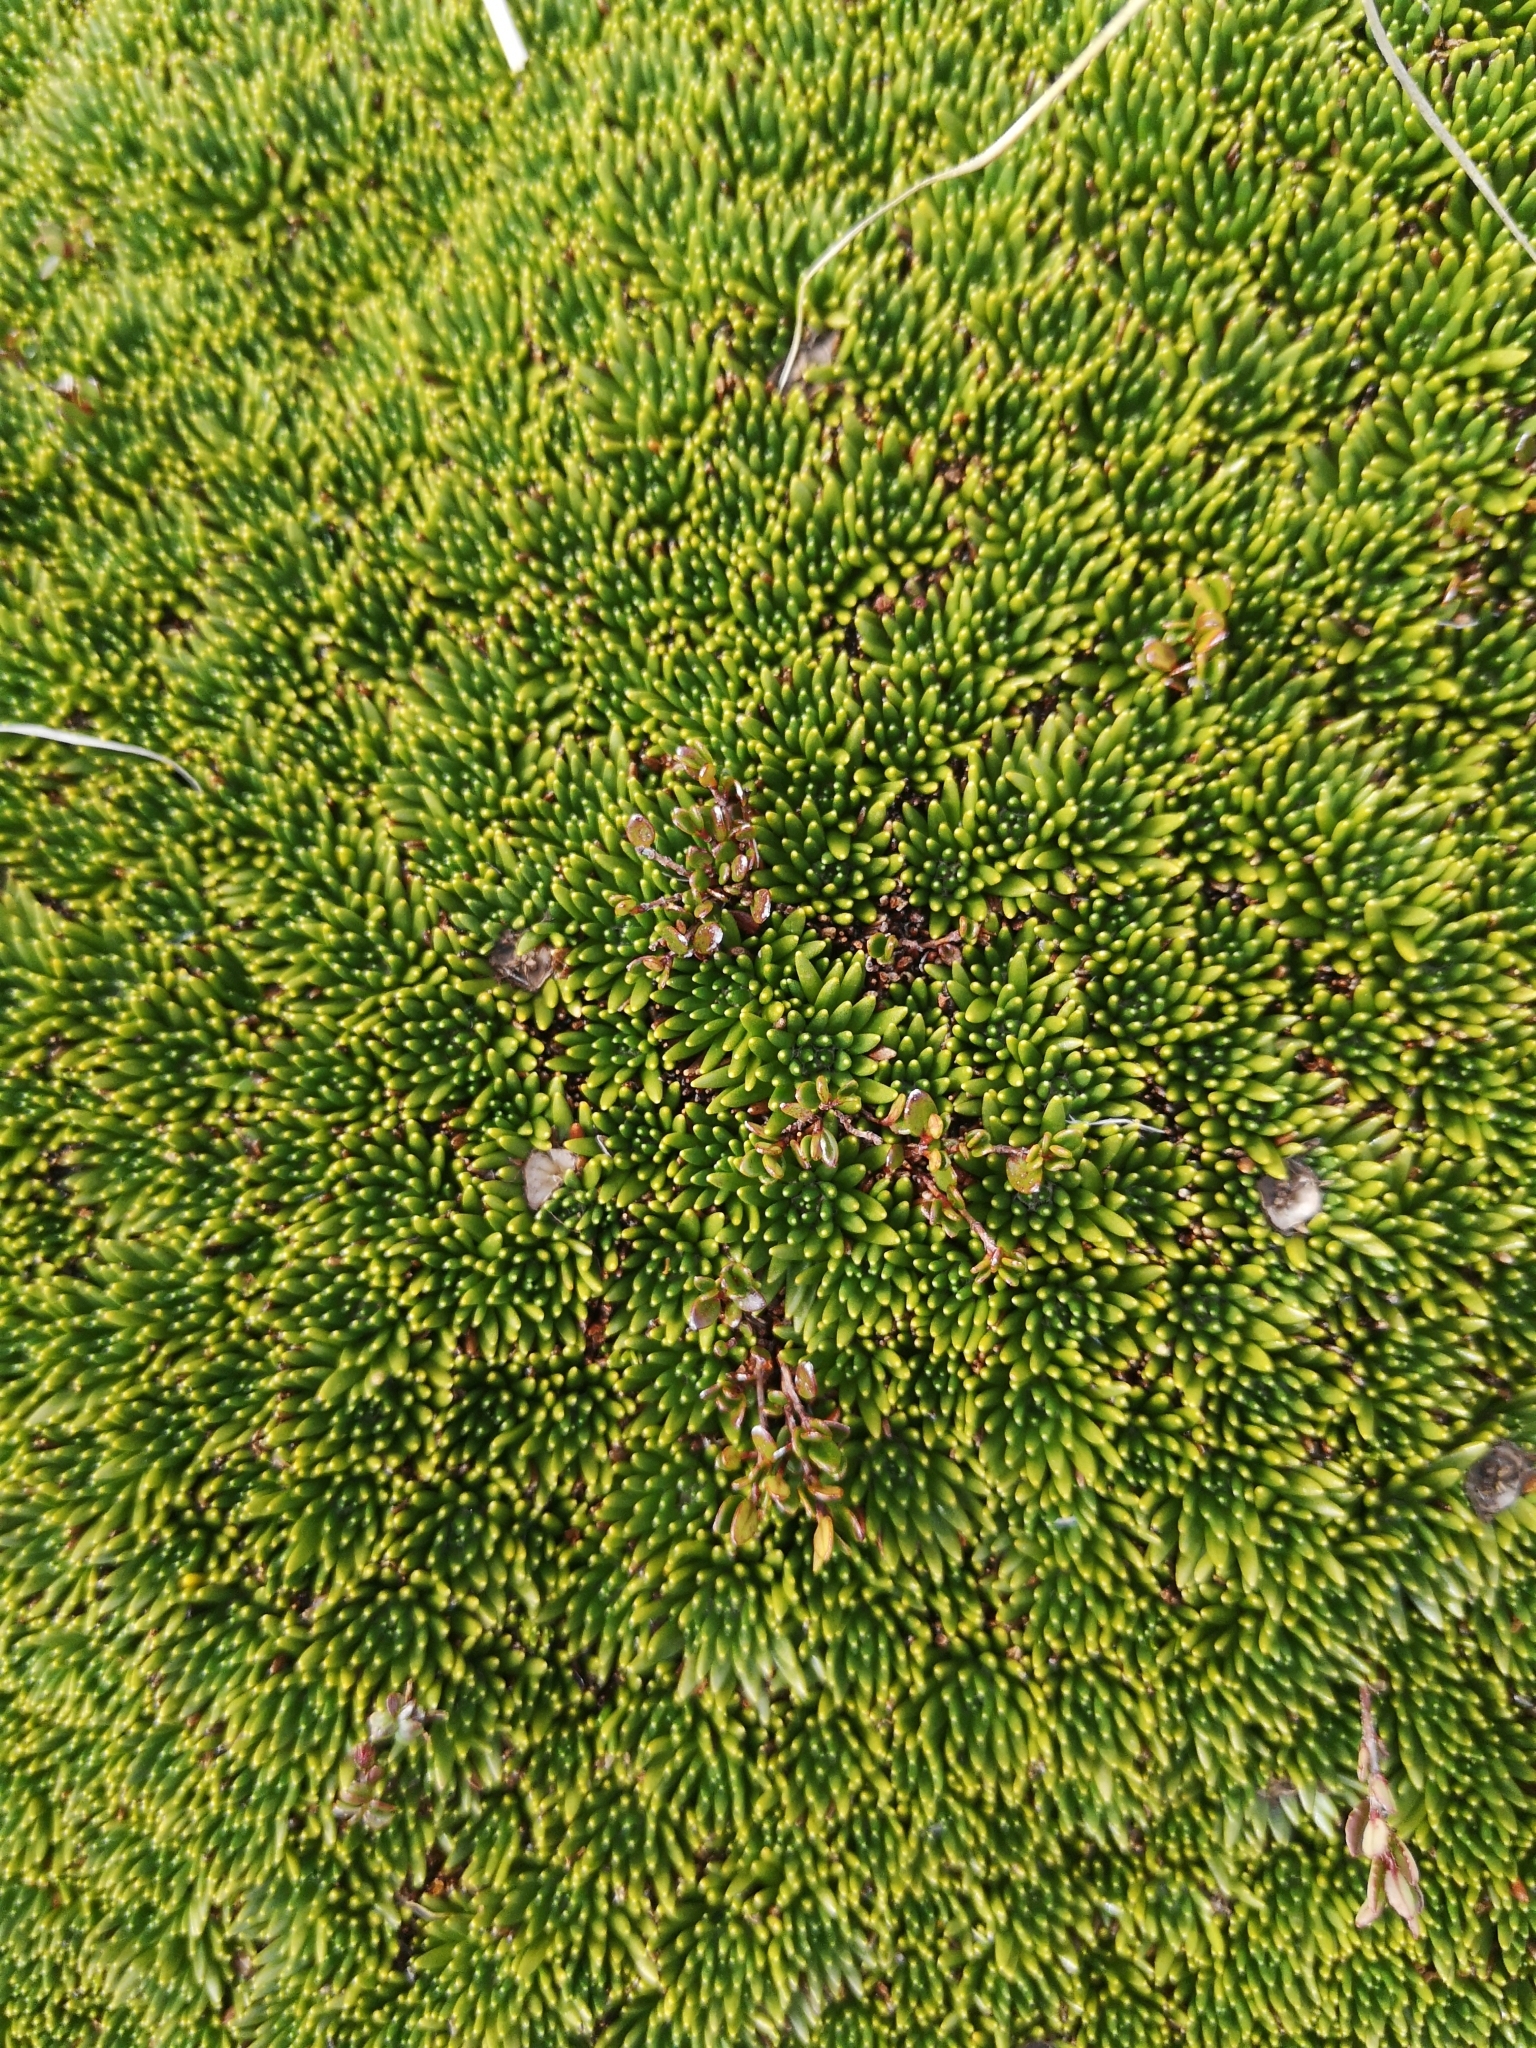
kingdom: Plantae
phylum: Tracheophyta
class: Magnoliopsida
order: Asterales
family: Stylidiaceae
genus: Donatia
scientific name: Donatia fascicularis
